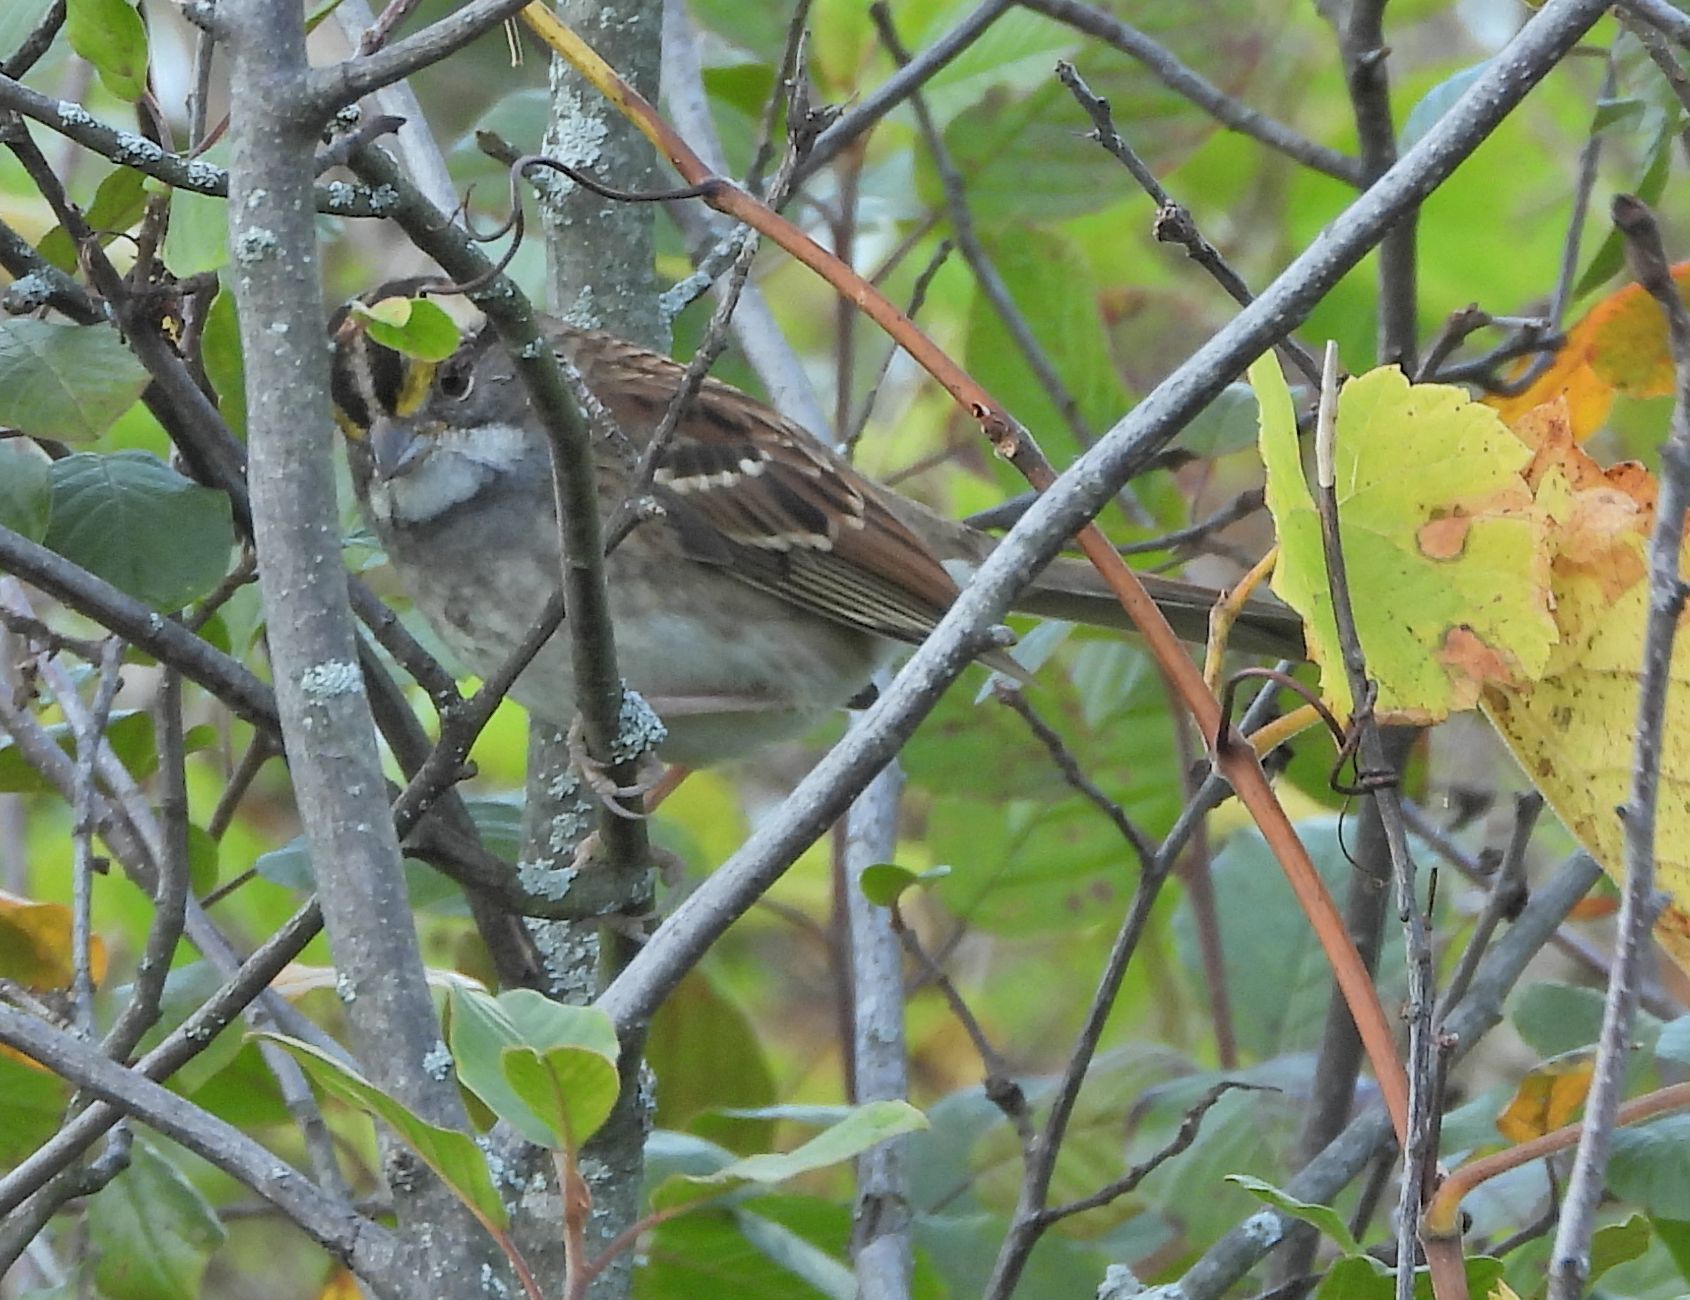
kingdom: Animalia
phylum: Chordata
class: Aves
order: Passeriformes
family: Passerellidae
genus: Zonotrichia
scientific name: Zonotrichia albicollis
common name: White-throated sparrow
